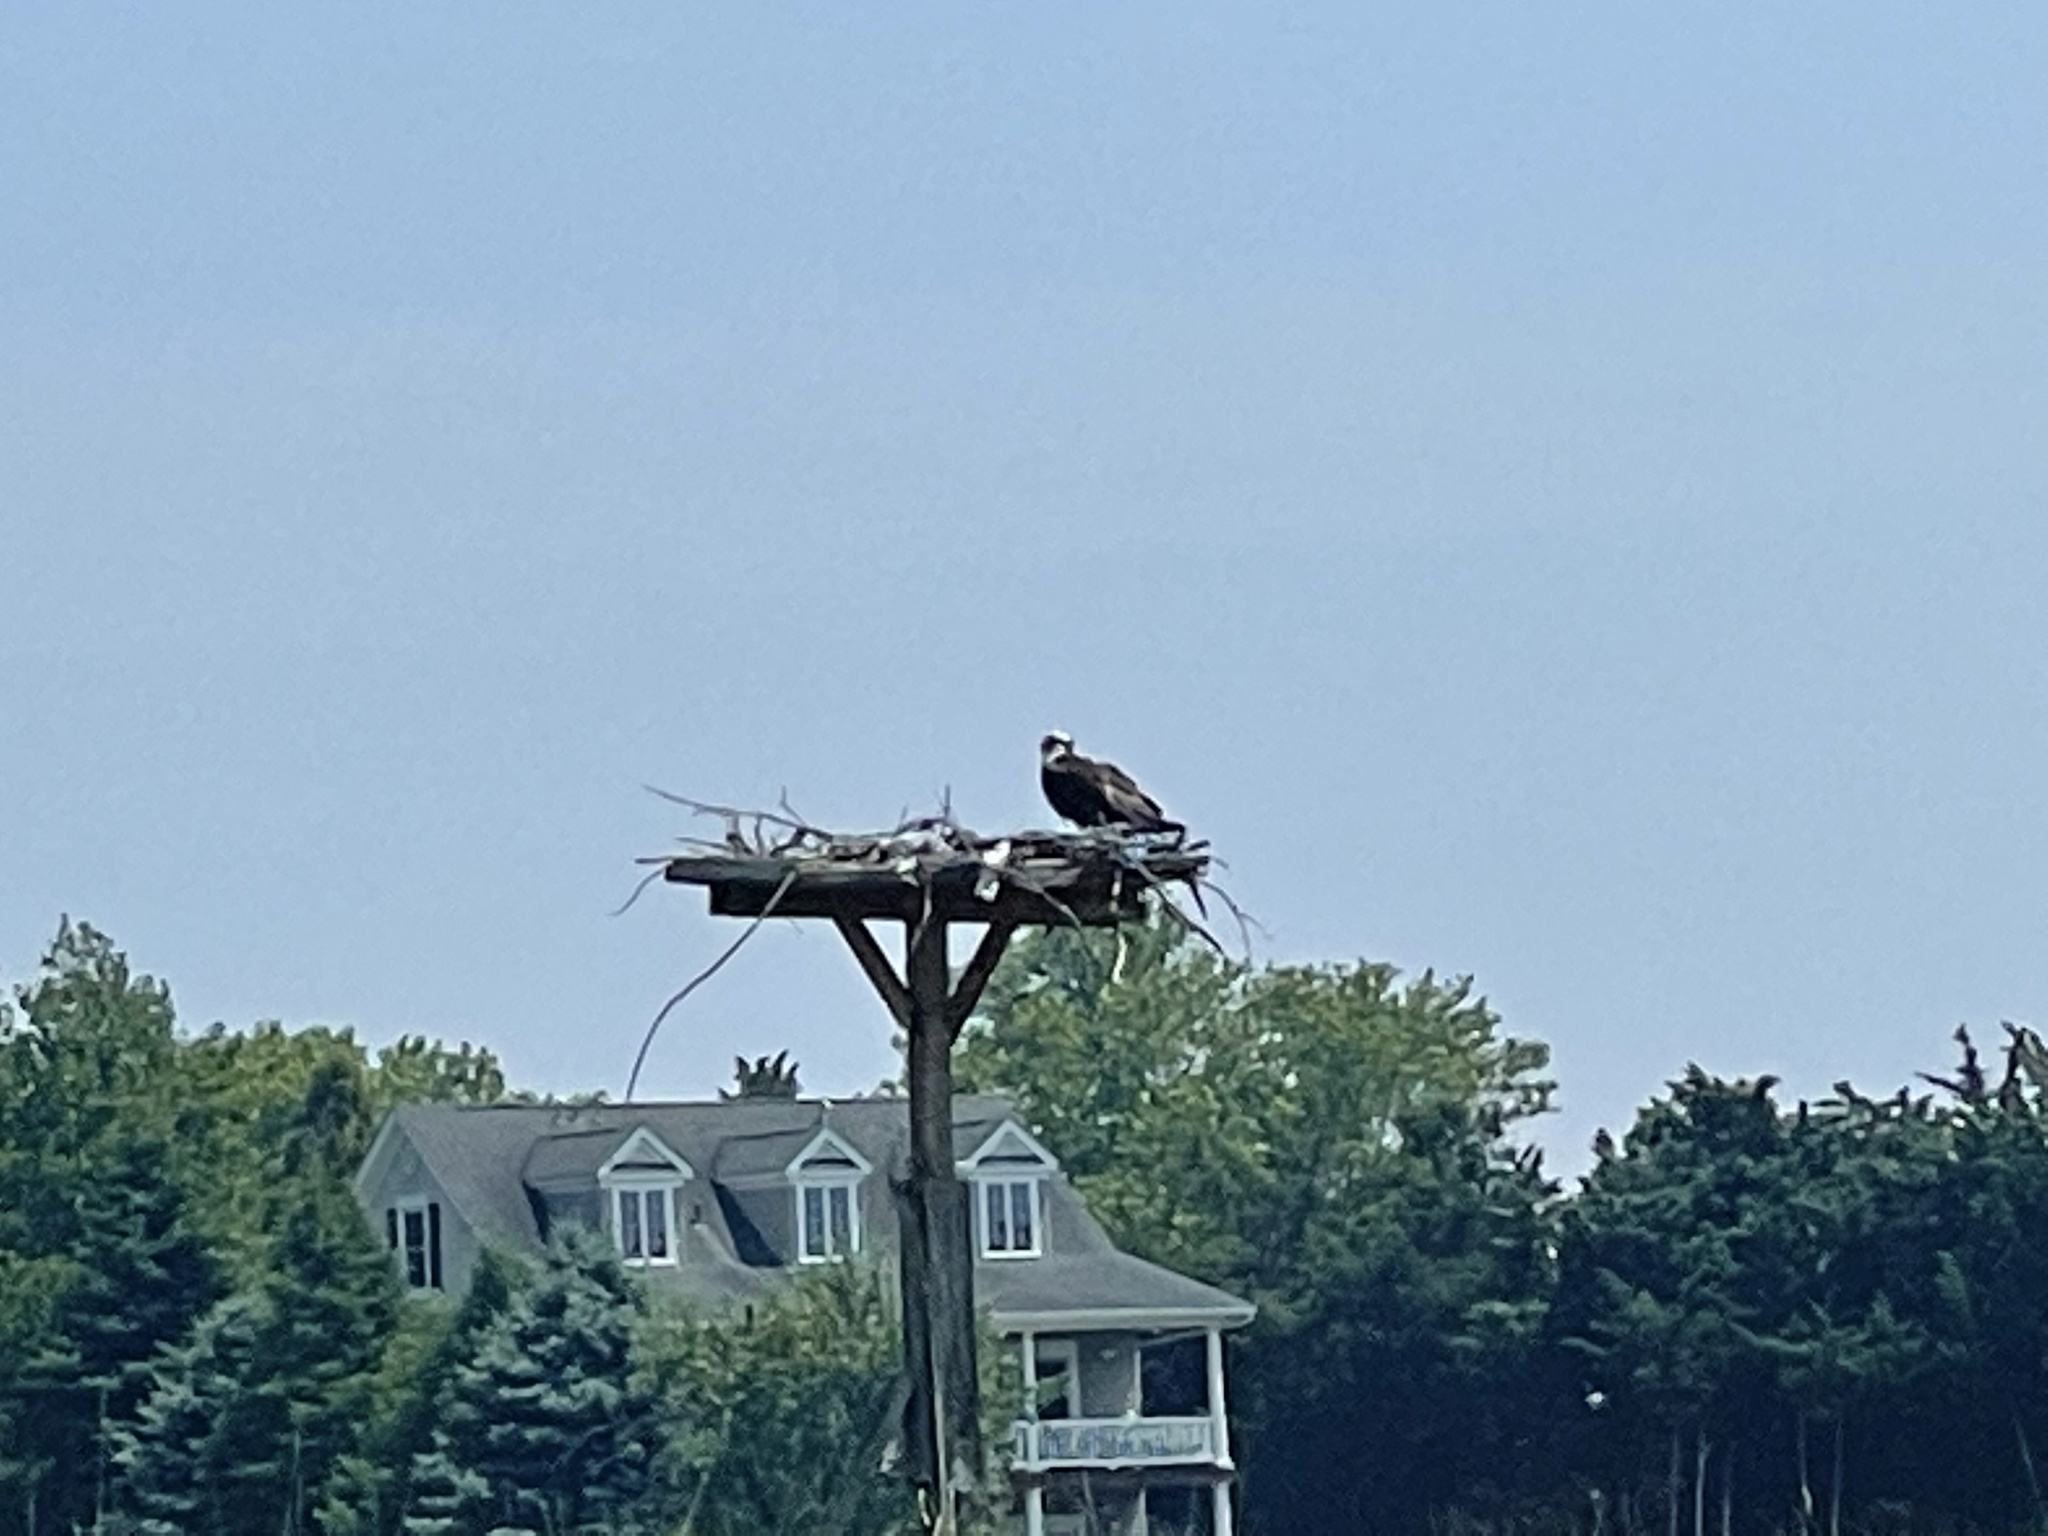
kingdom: Animalia
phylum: Chordata
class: Aves
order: Accipitriformes
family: Pandionidae
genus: Pandion
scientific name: Pandion haliaetus
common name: Osprey
